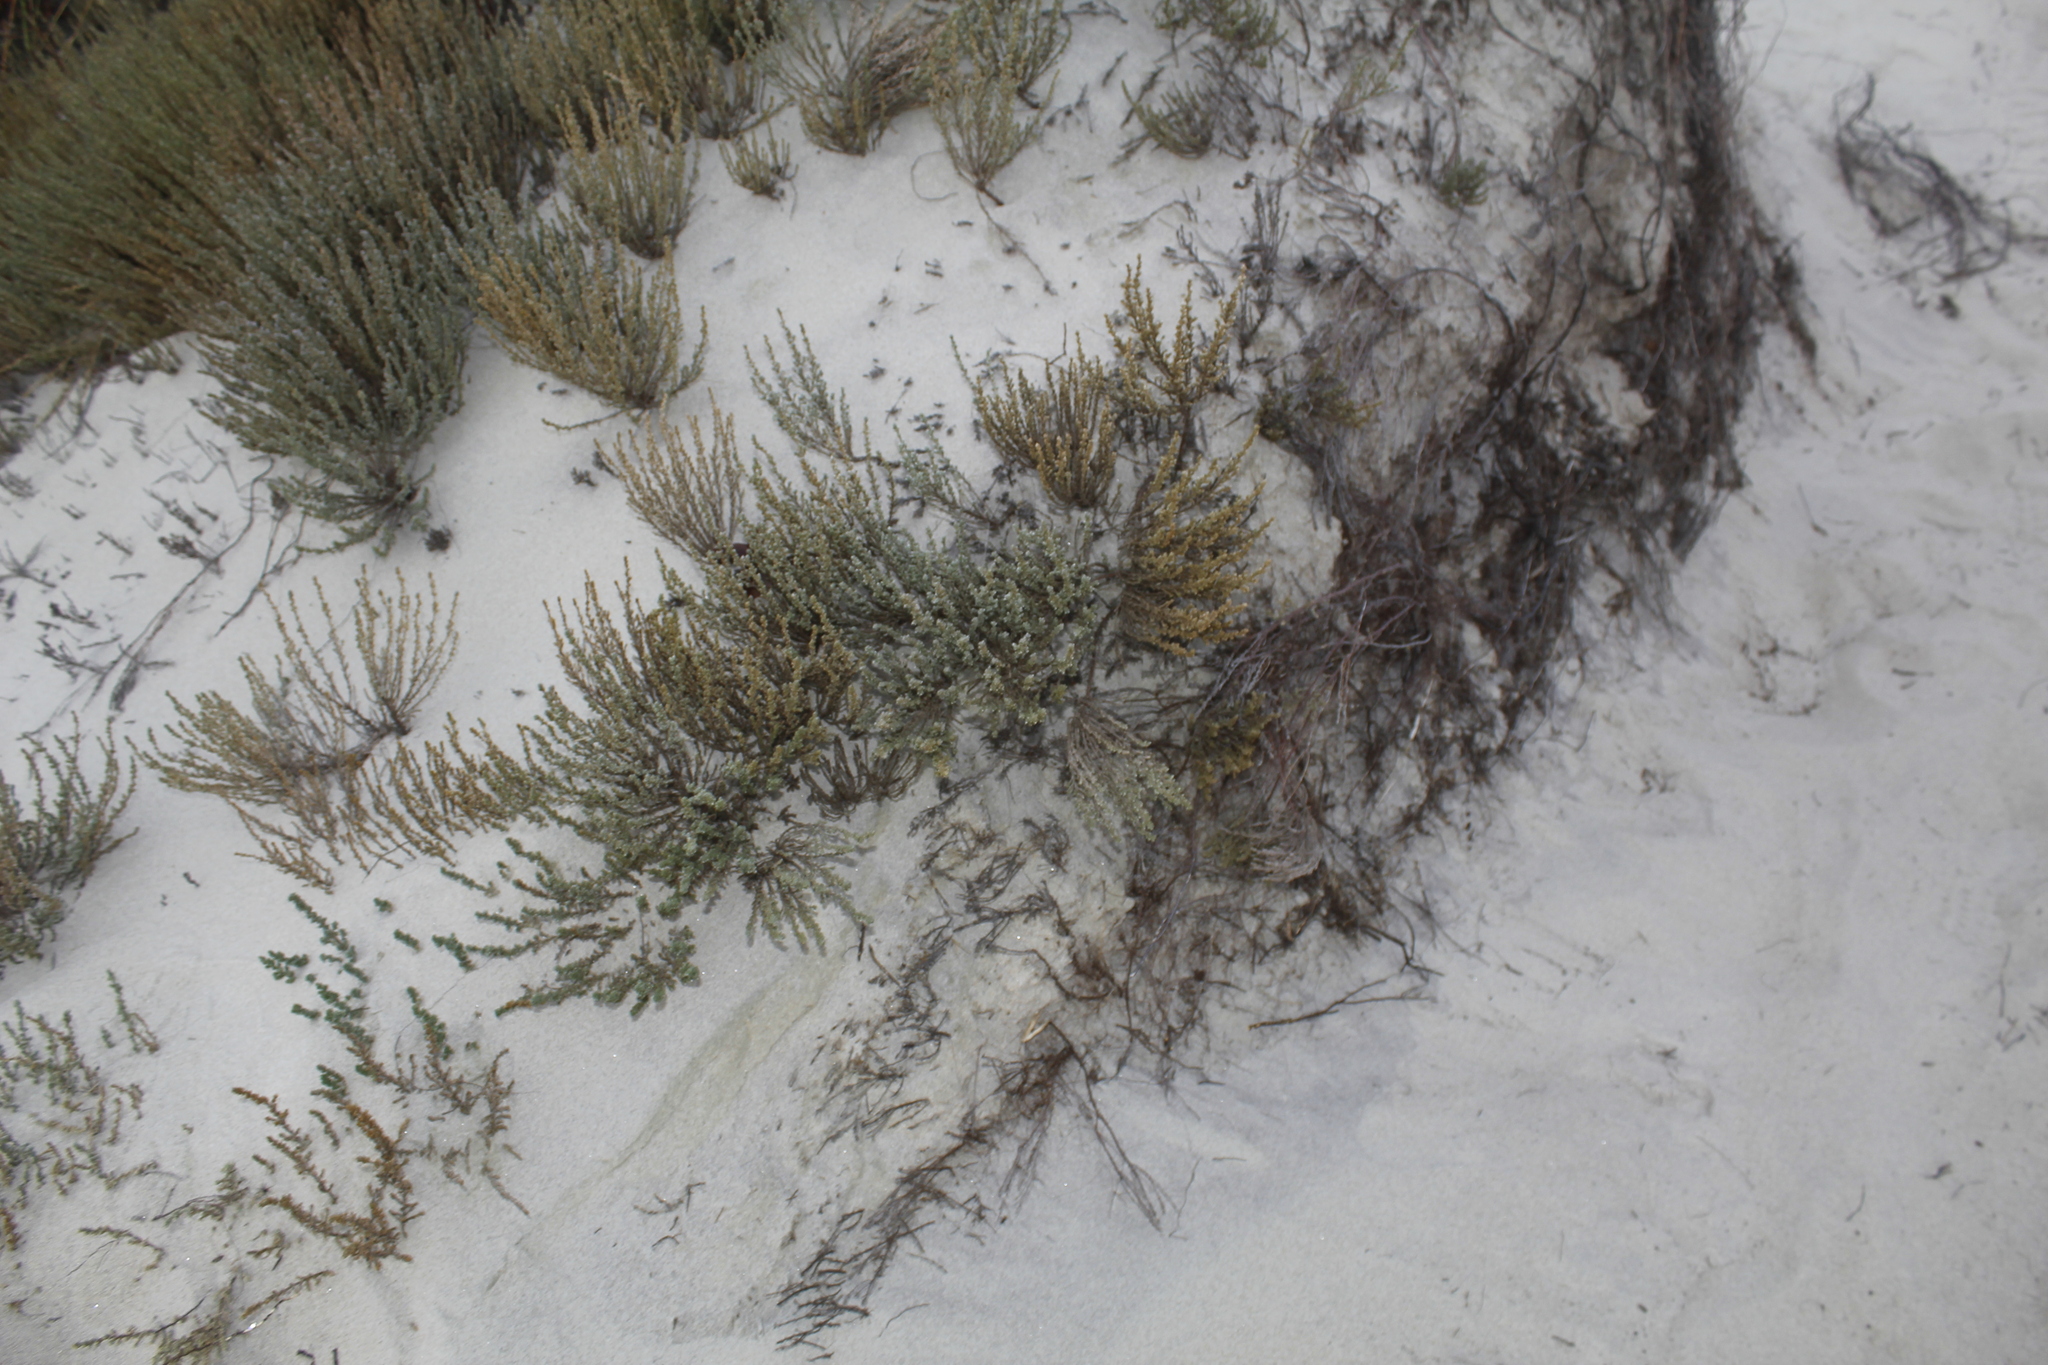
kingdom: Plantae
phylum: Tracheophyta
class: Magnoliopsida
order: Malvales
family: Cistaceae
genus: Hudsonia
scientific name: Hudsonia tomentosa
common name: Beach-heath
